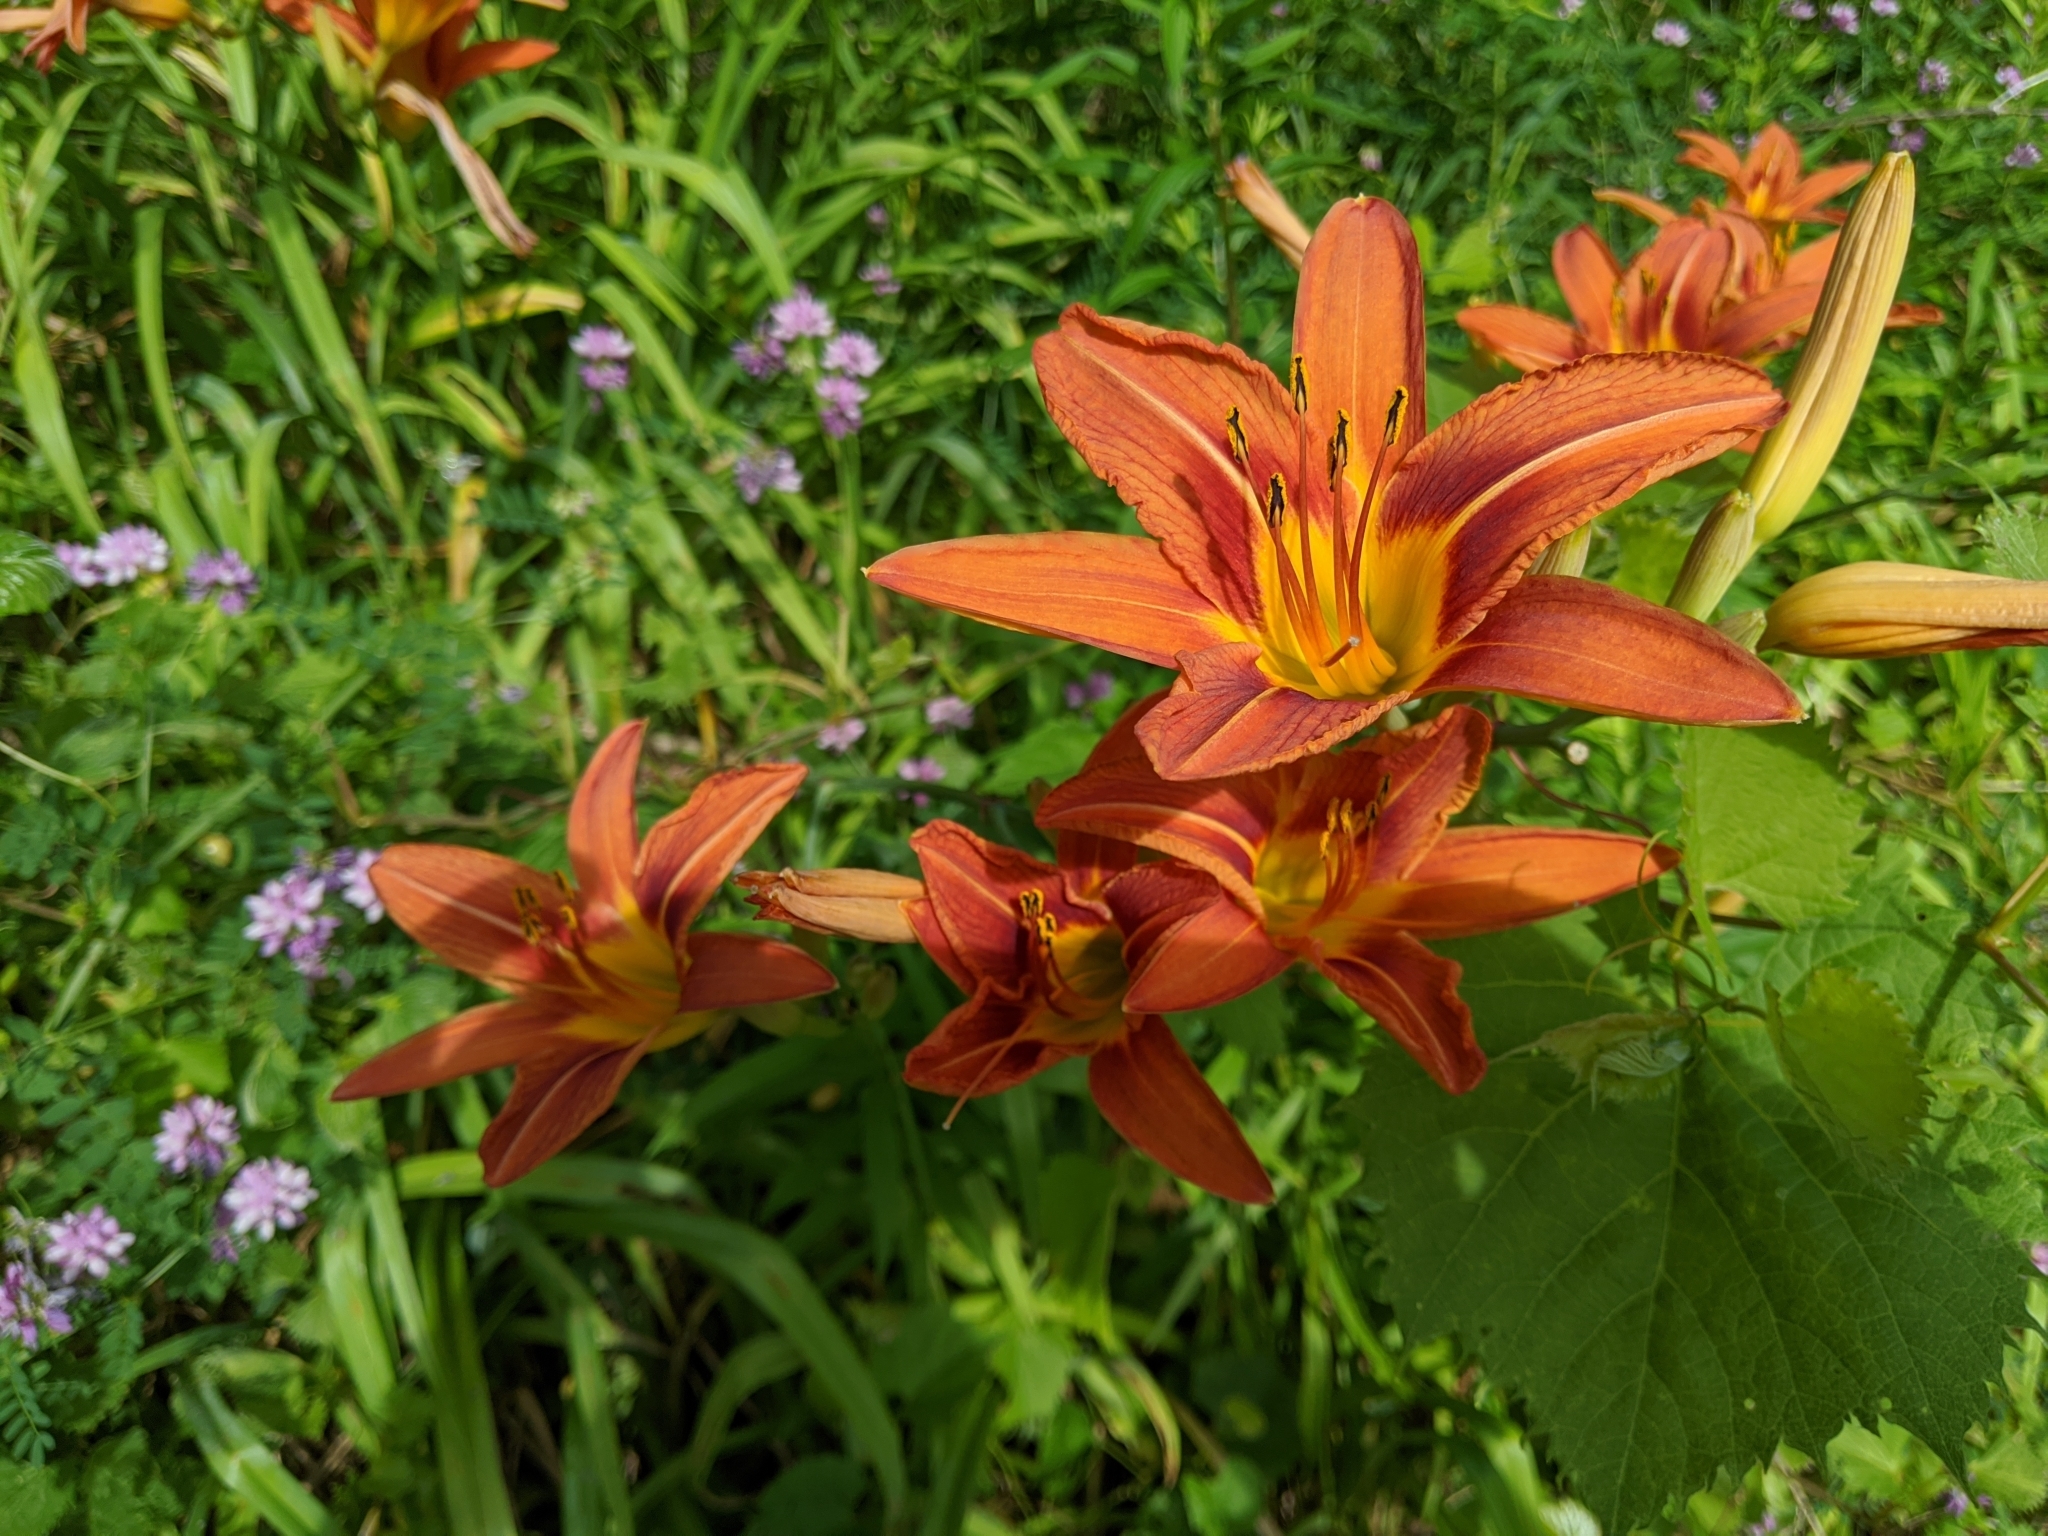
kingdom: Plantae
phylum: Tracheophyta
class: Liliopsida
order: Asparagales
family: Asphodelaceae
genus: Hemerocallis
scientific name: Hemerocallis fulva
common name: Orange day-lily
